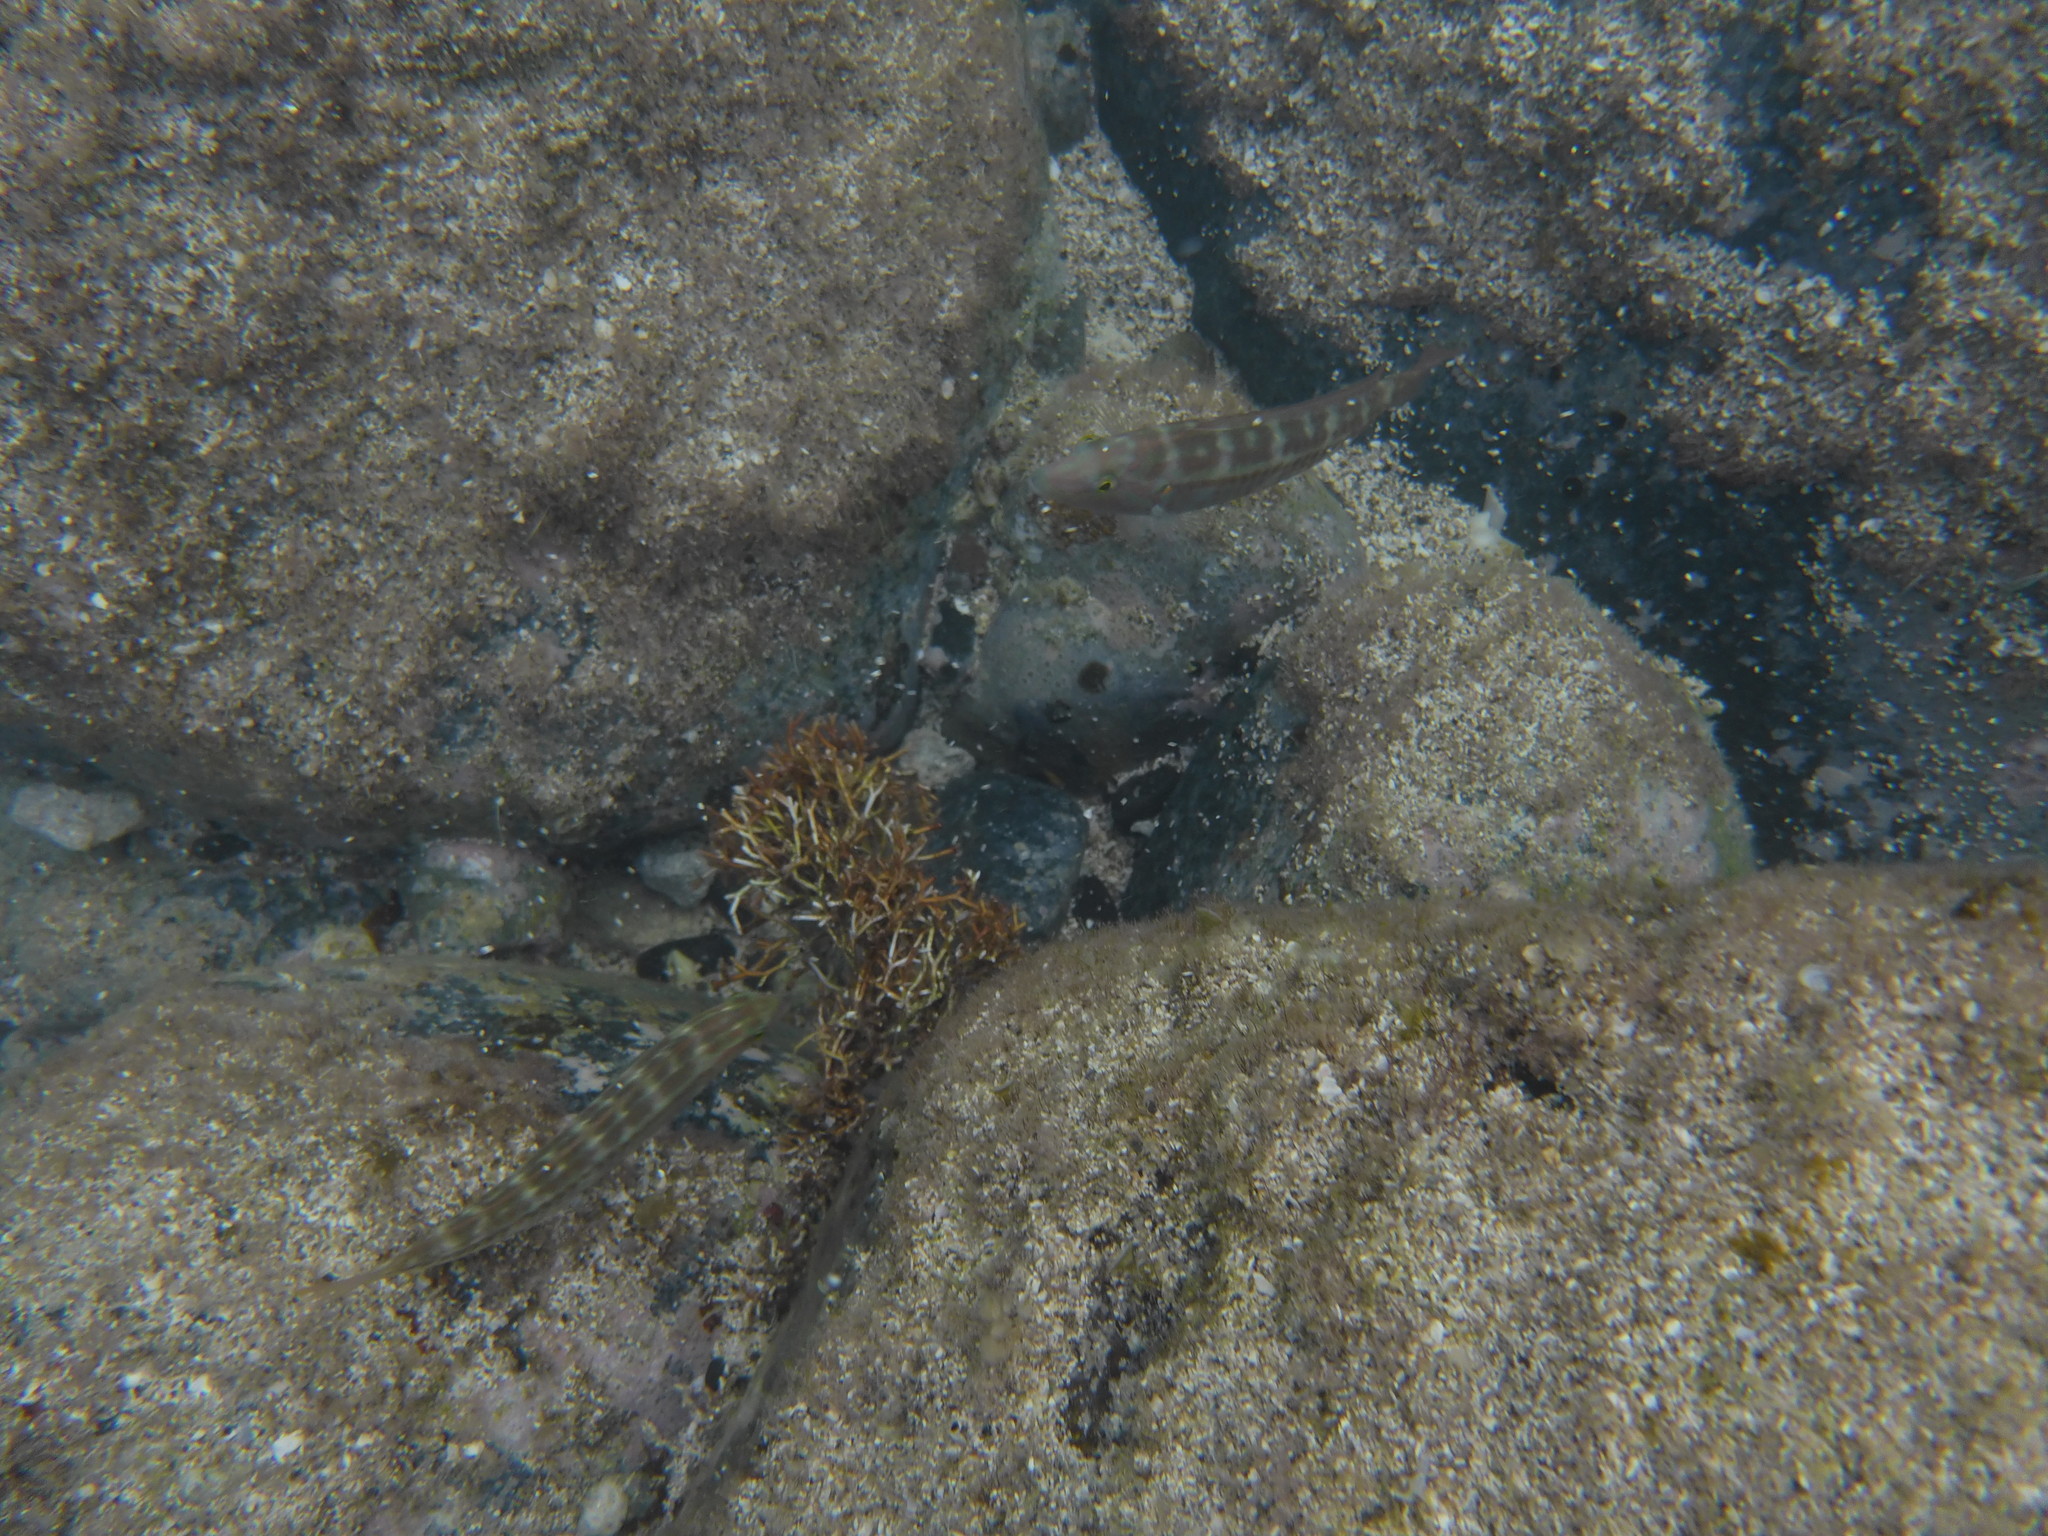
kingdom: Animalia
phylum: Chordata
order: Perciformes
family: Labridae
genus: Halichoeres
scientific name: Halichoeres bivittatus
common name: Slippery dick
